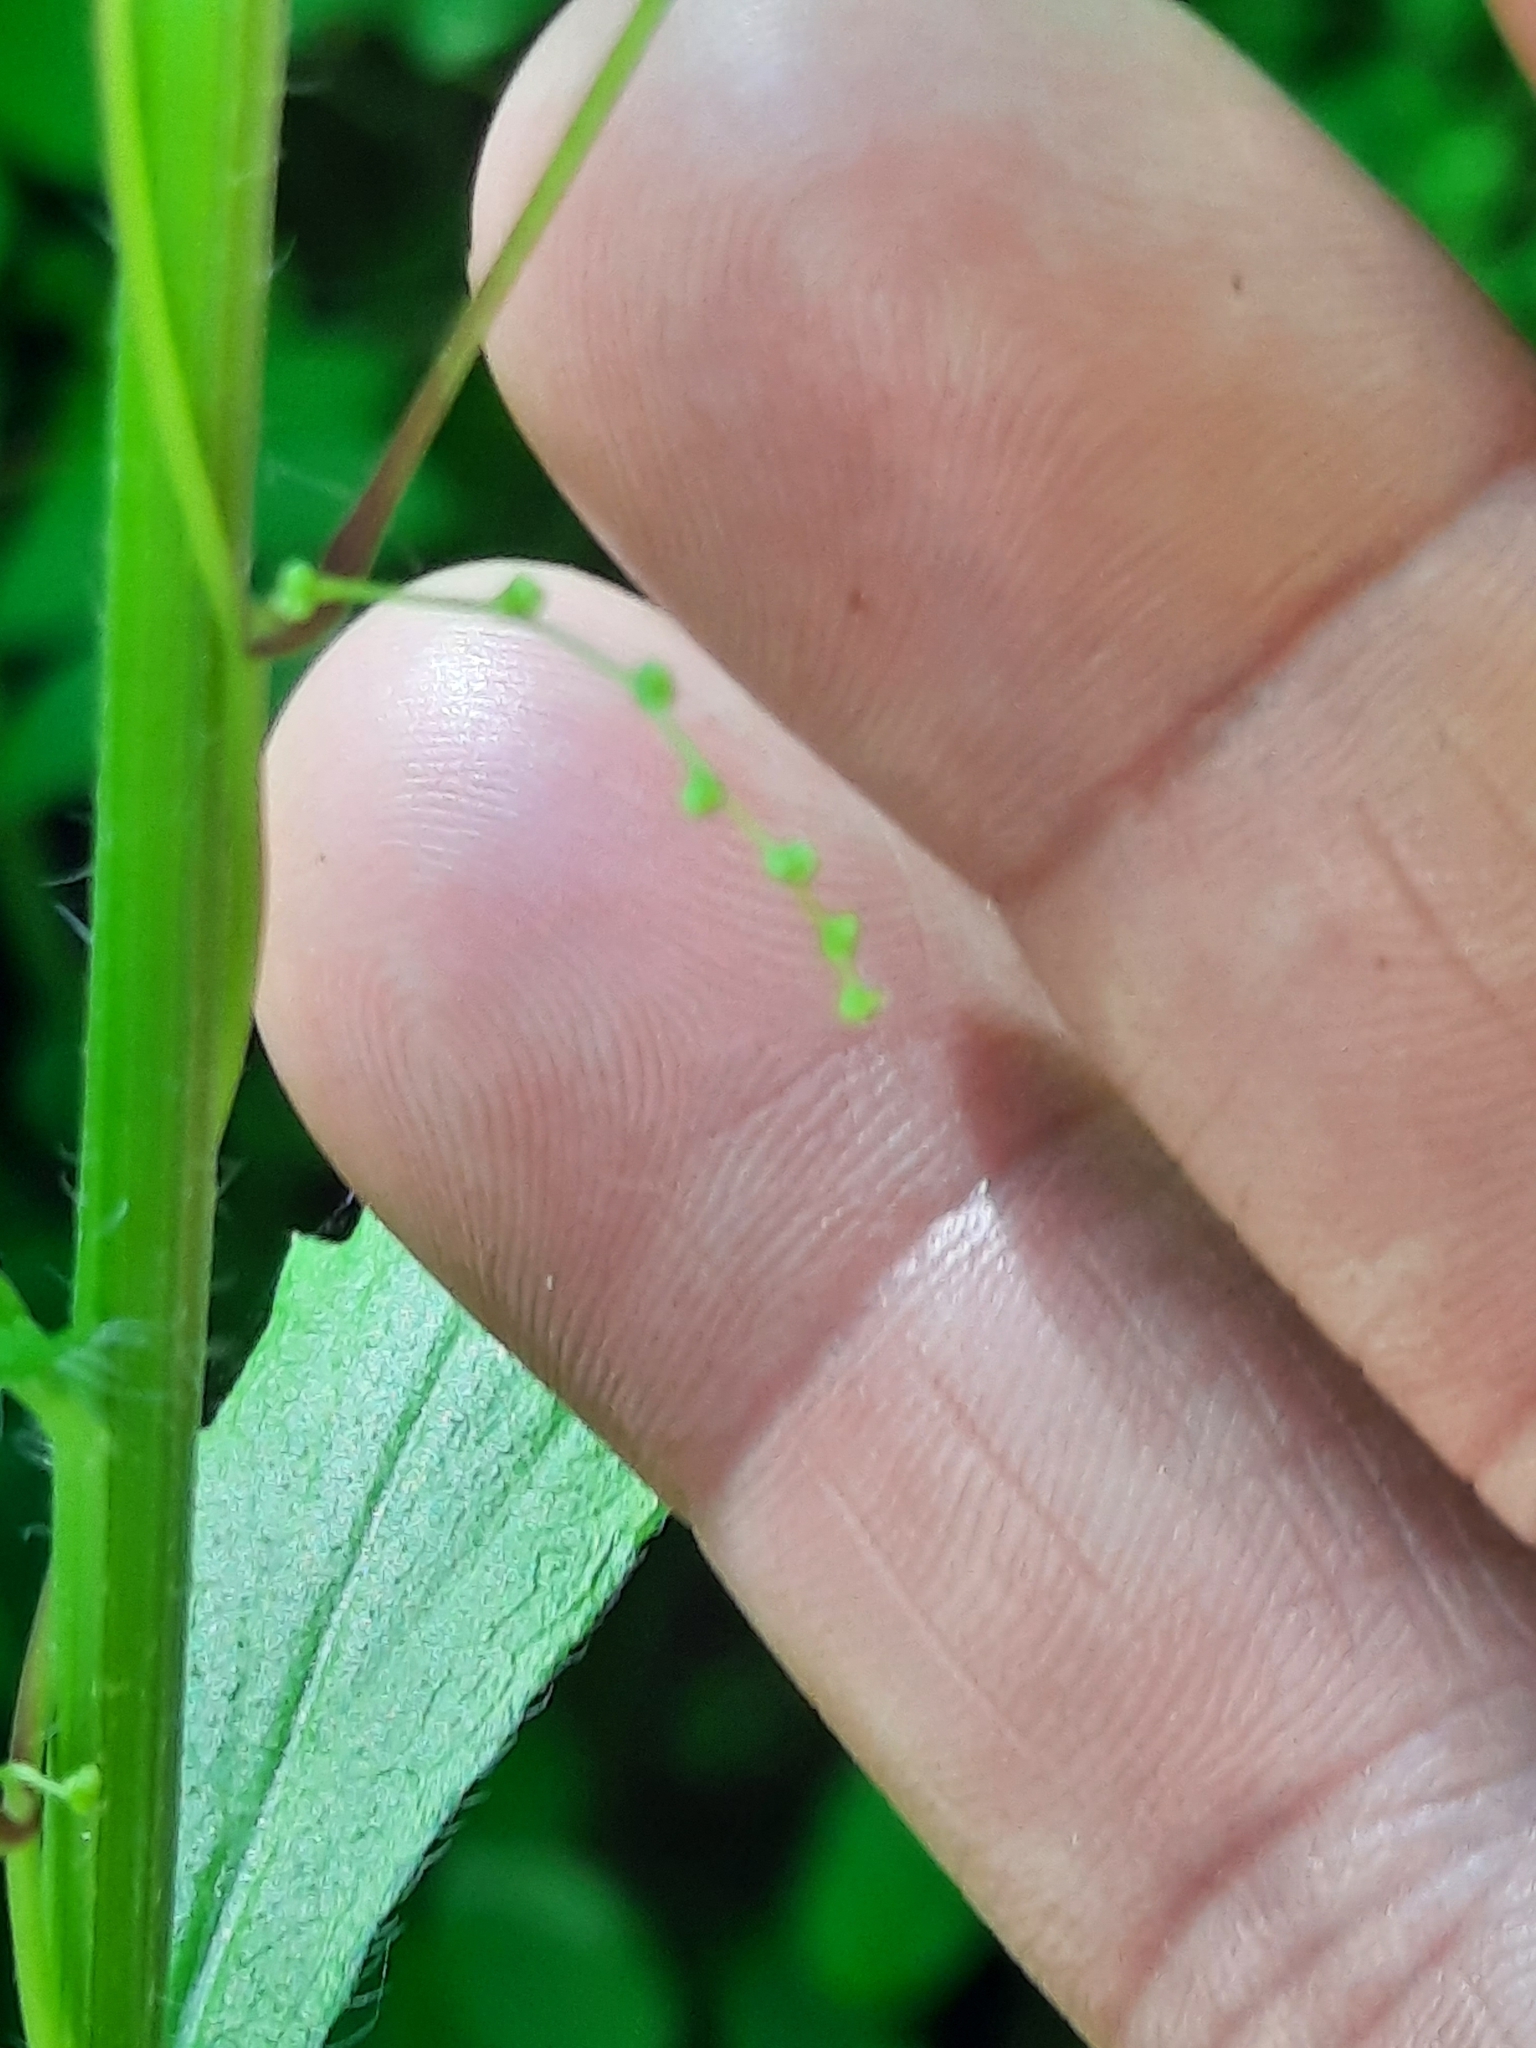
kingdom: Plantae
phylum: Tracheophyta
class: Liliopsida
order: Dioscoreales
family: Dioscoreaceae
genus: Dioscorea
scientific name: Dioscorea villosa
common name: Wild yam
